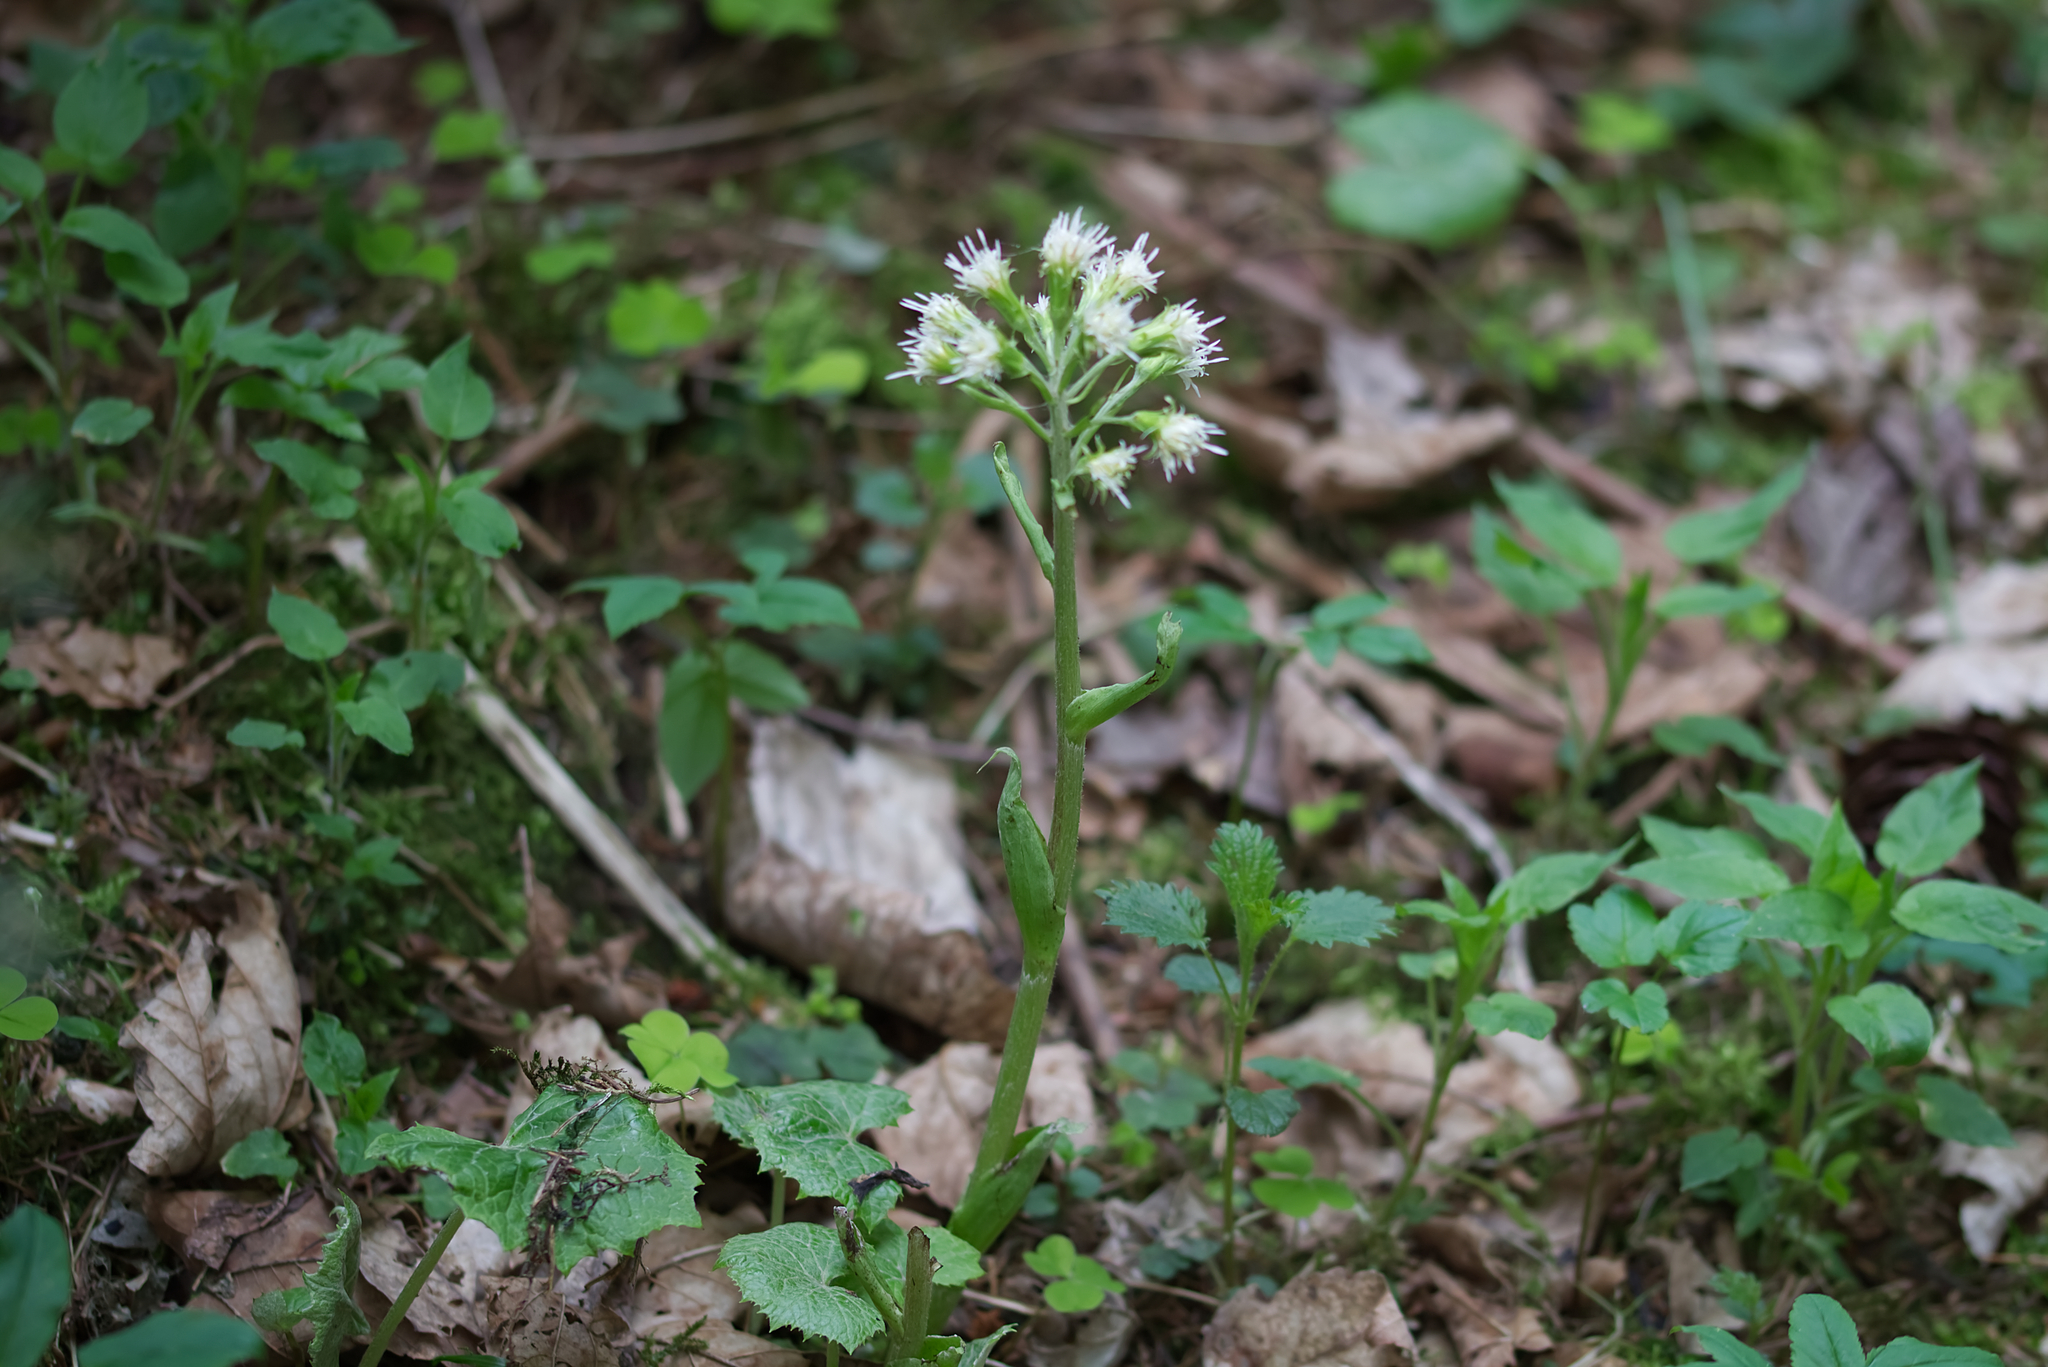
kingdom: Plantae
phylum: Tracheophyta
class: Magnoliopsida
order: Asterales
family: Asteraceae
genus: Petasites
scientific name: Petasites albus
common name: White butterbur
